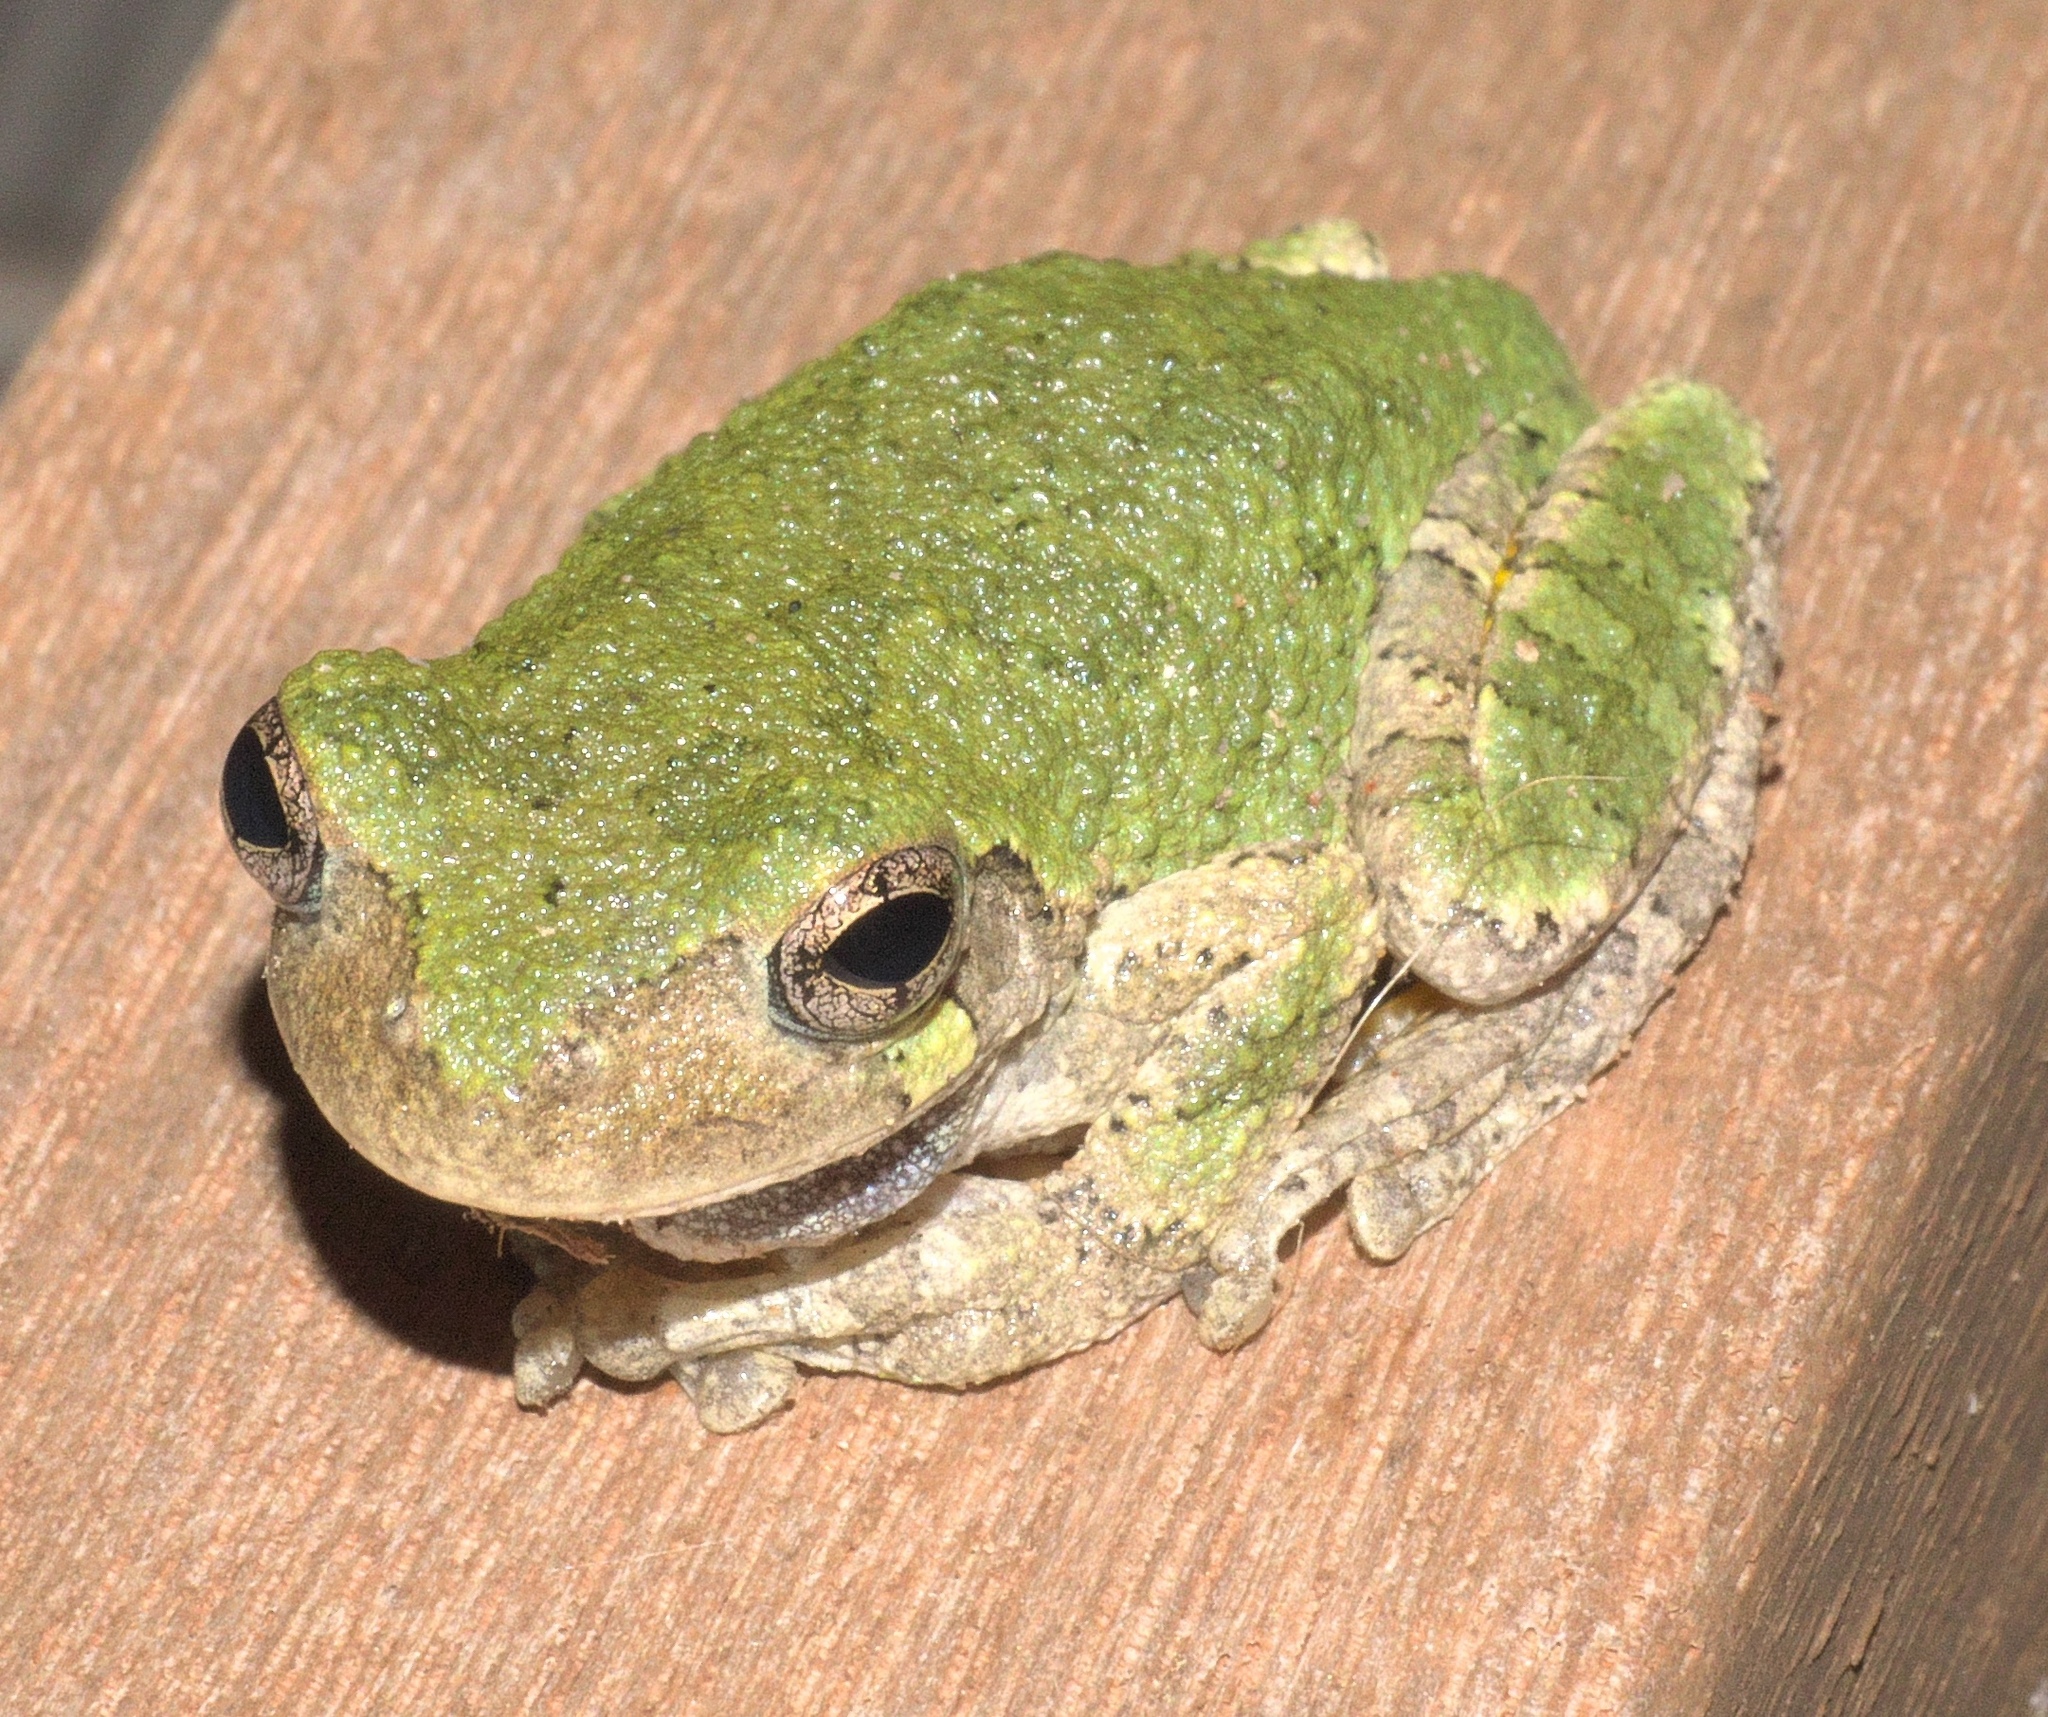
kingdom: Animalia
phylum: Chordata
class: Amphibia
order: Anura
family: Hylidae
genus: Hyla
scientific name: Hyla
